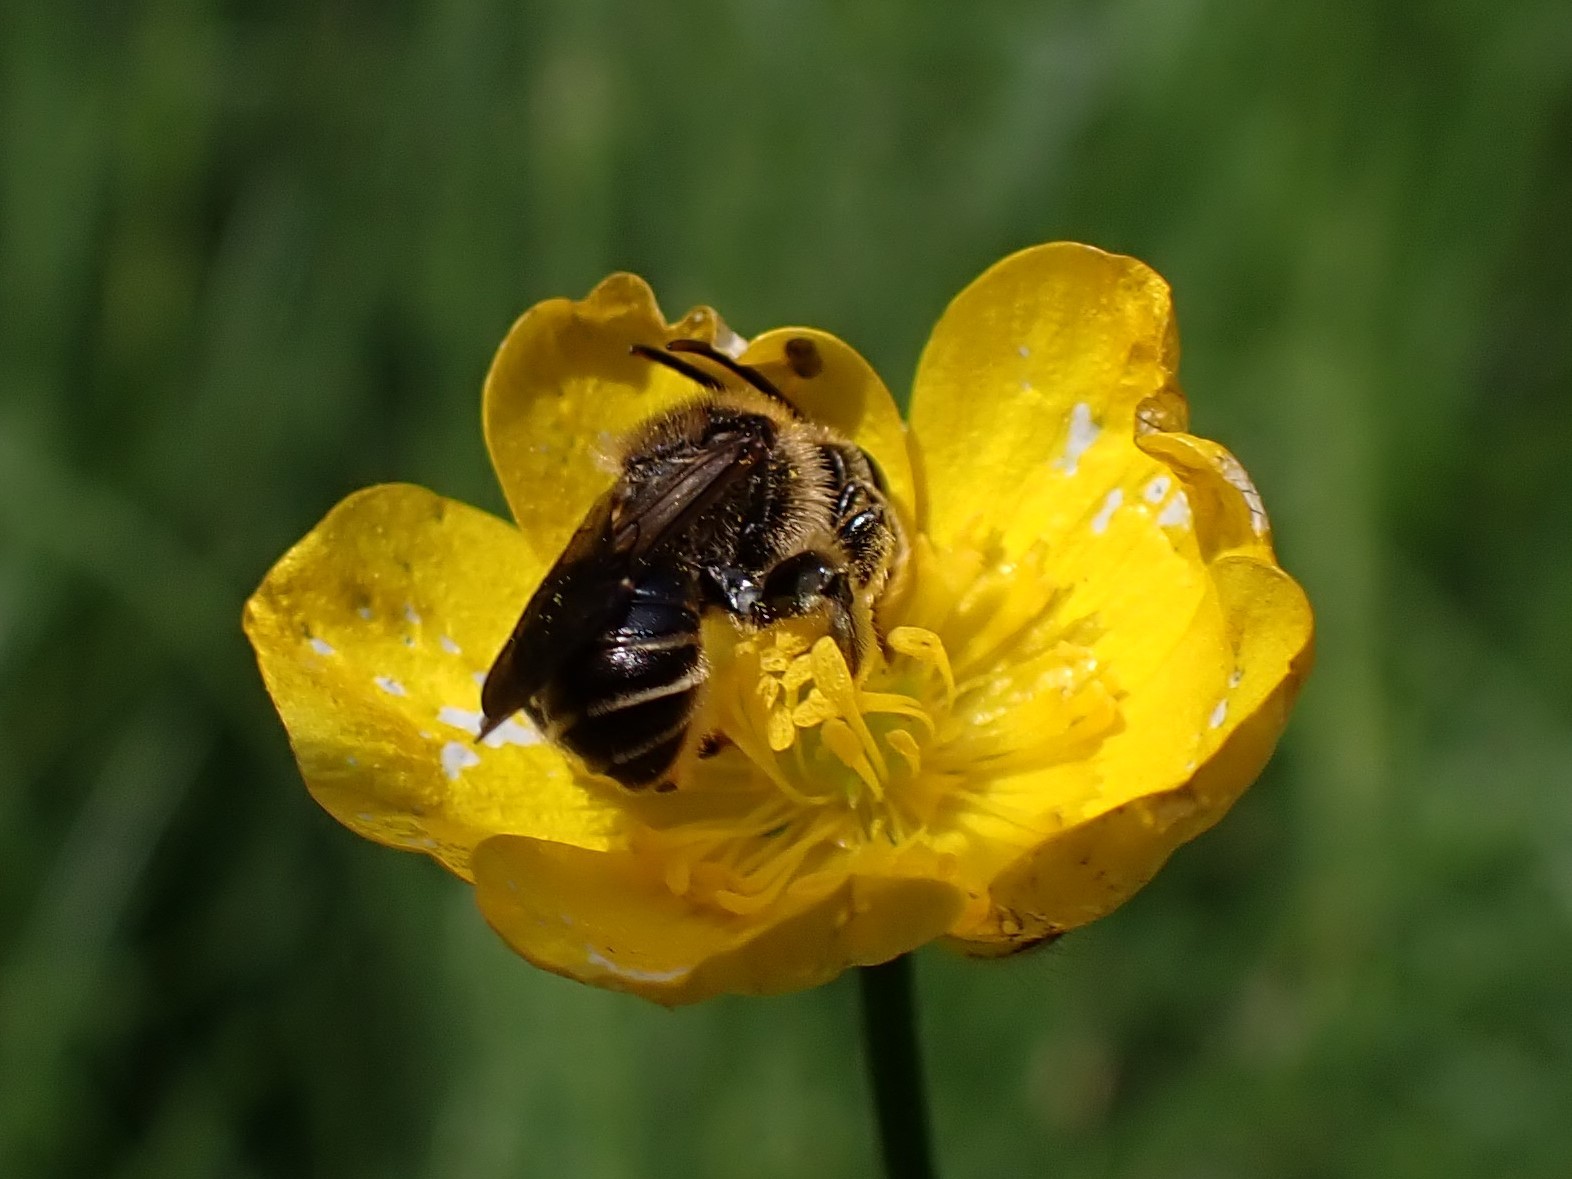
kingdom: Animalia
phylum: Arthropoda
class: Insecta
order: Hymenoptera
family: Melittidae
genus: Macropis
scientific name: Macropis europaea
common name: Yellow loosestrife bee
